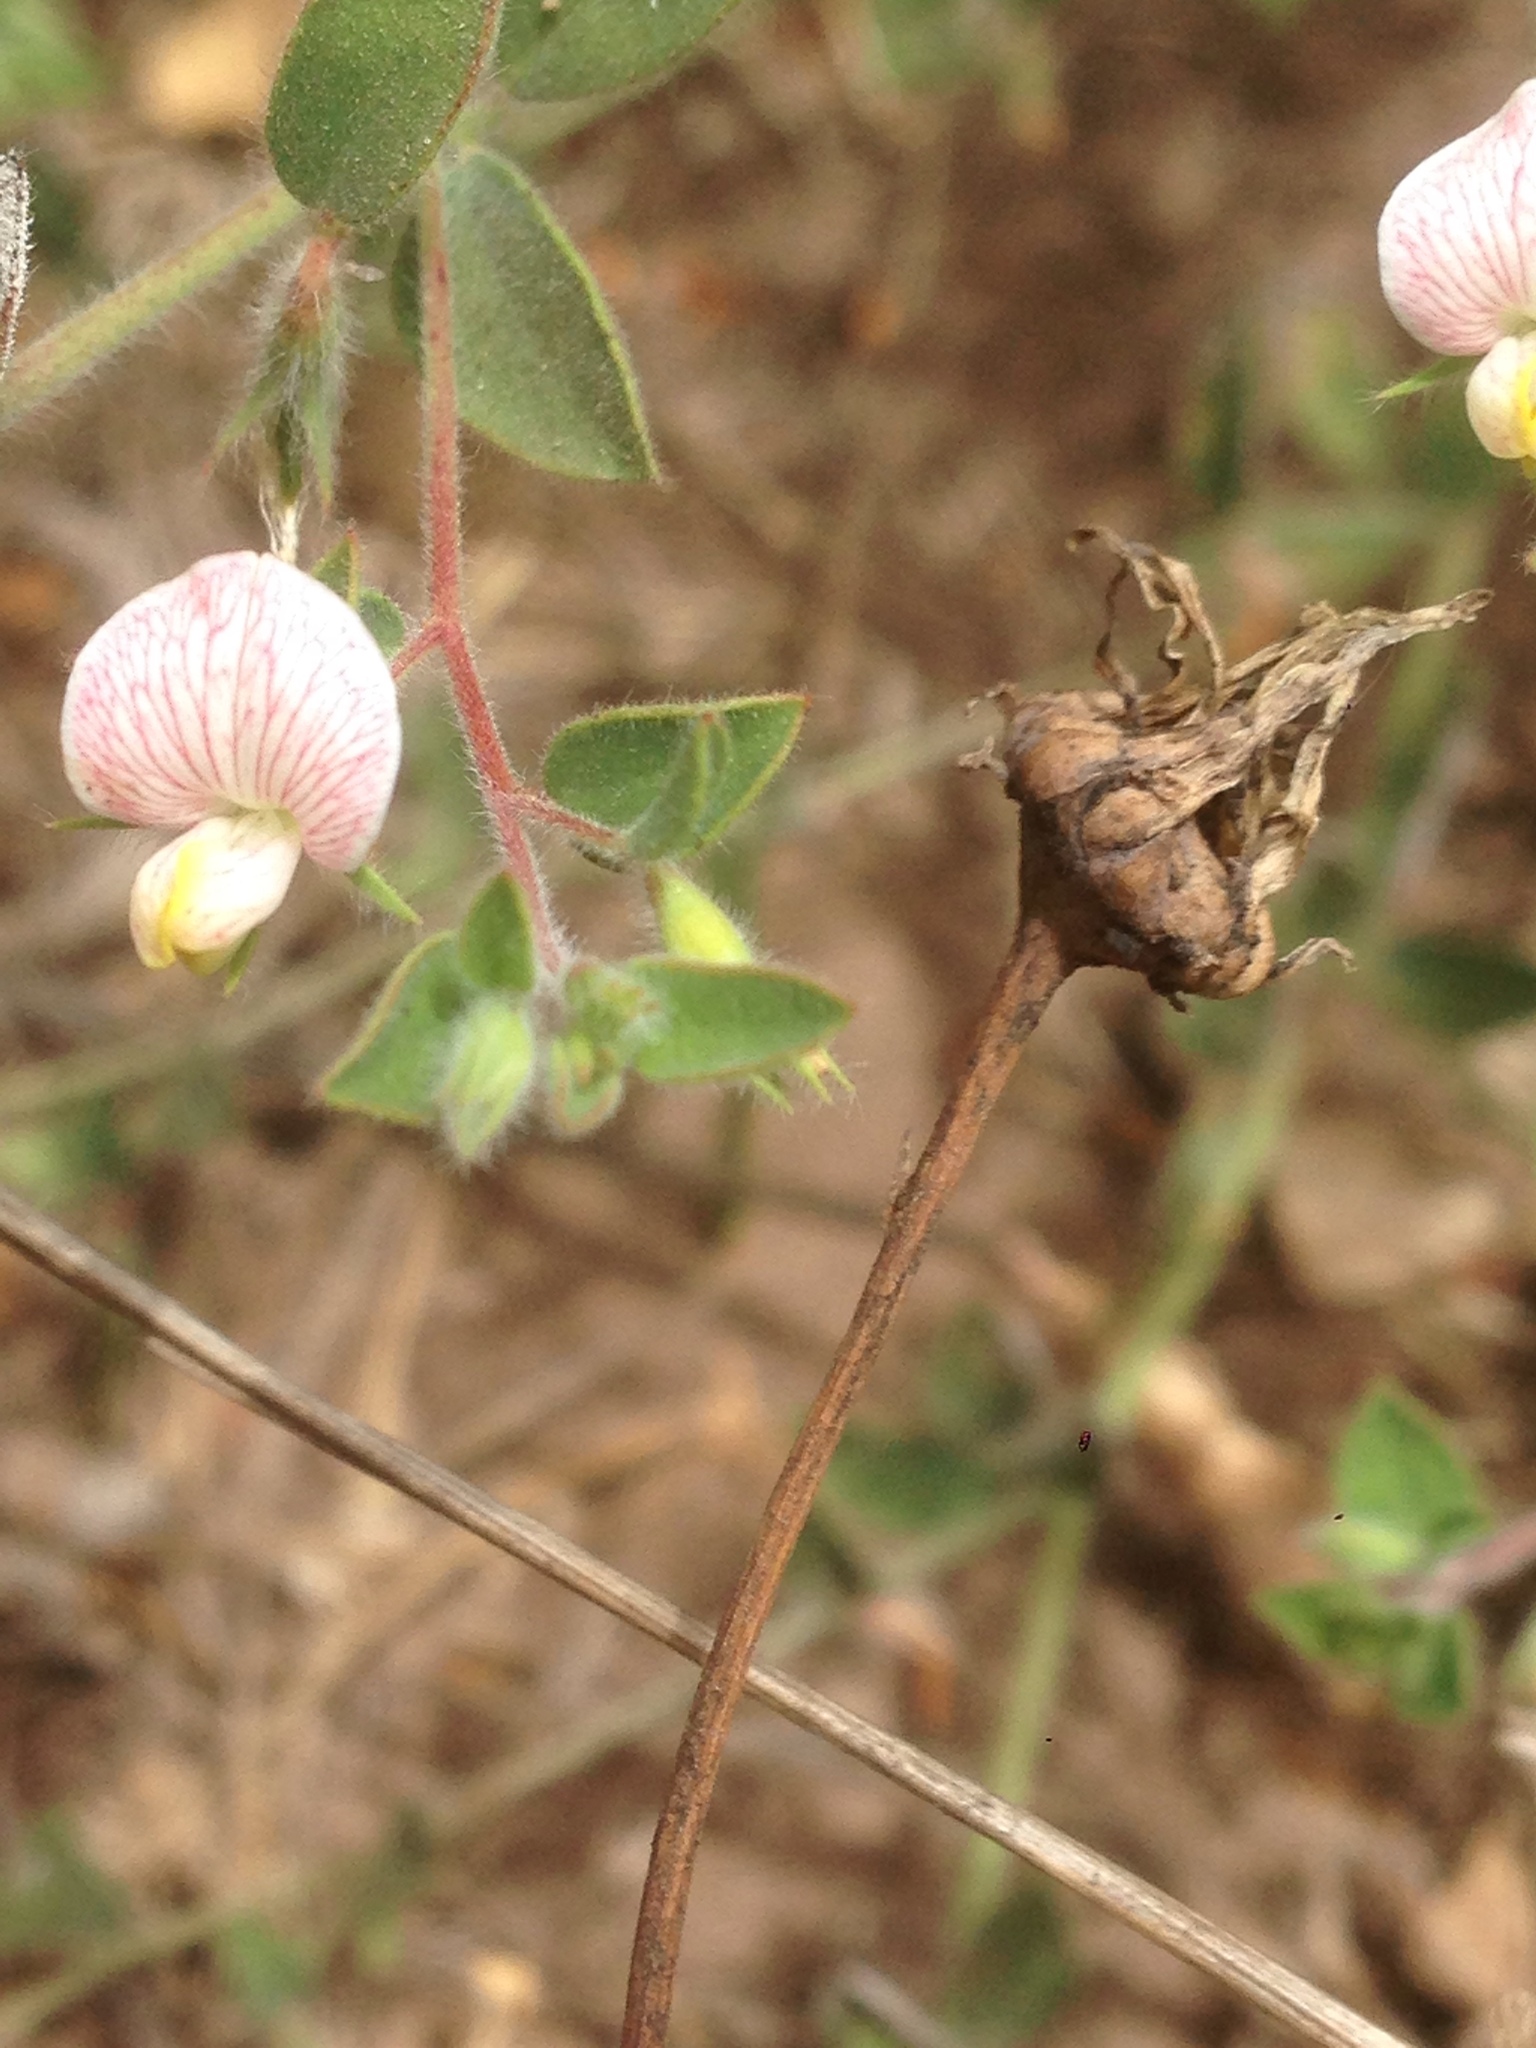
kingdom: Plantae
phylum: Tracheophyta
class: Magnoliopsida
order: Fabales
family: Fabaceae
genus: Acmispon
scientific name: Acmispon americanus
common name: American bird's-foot trefoil
